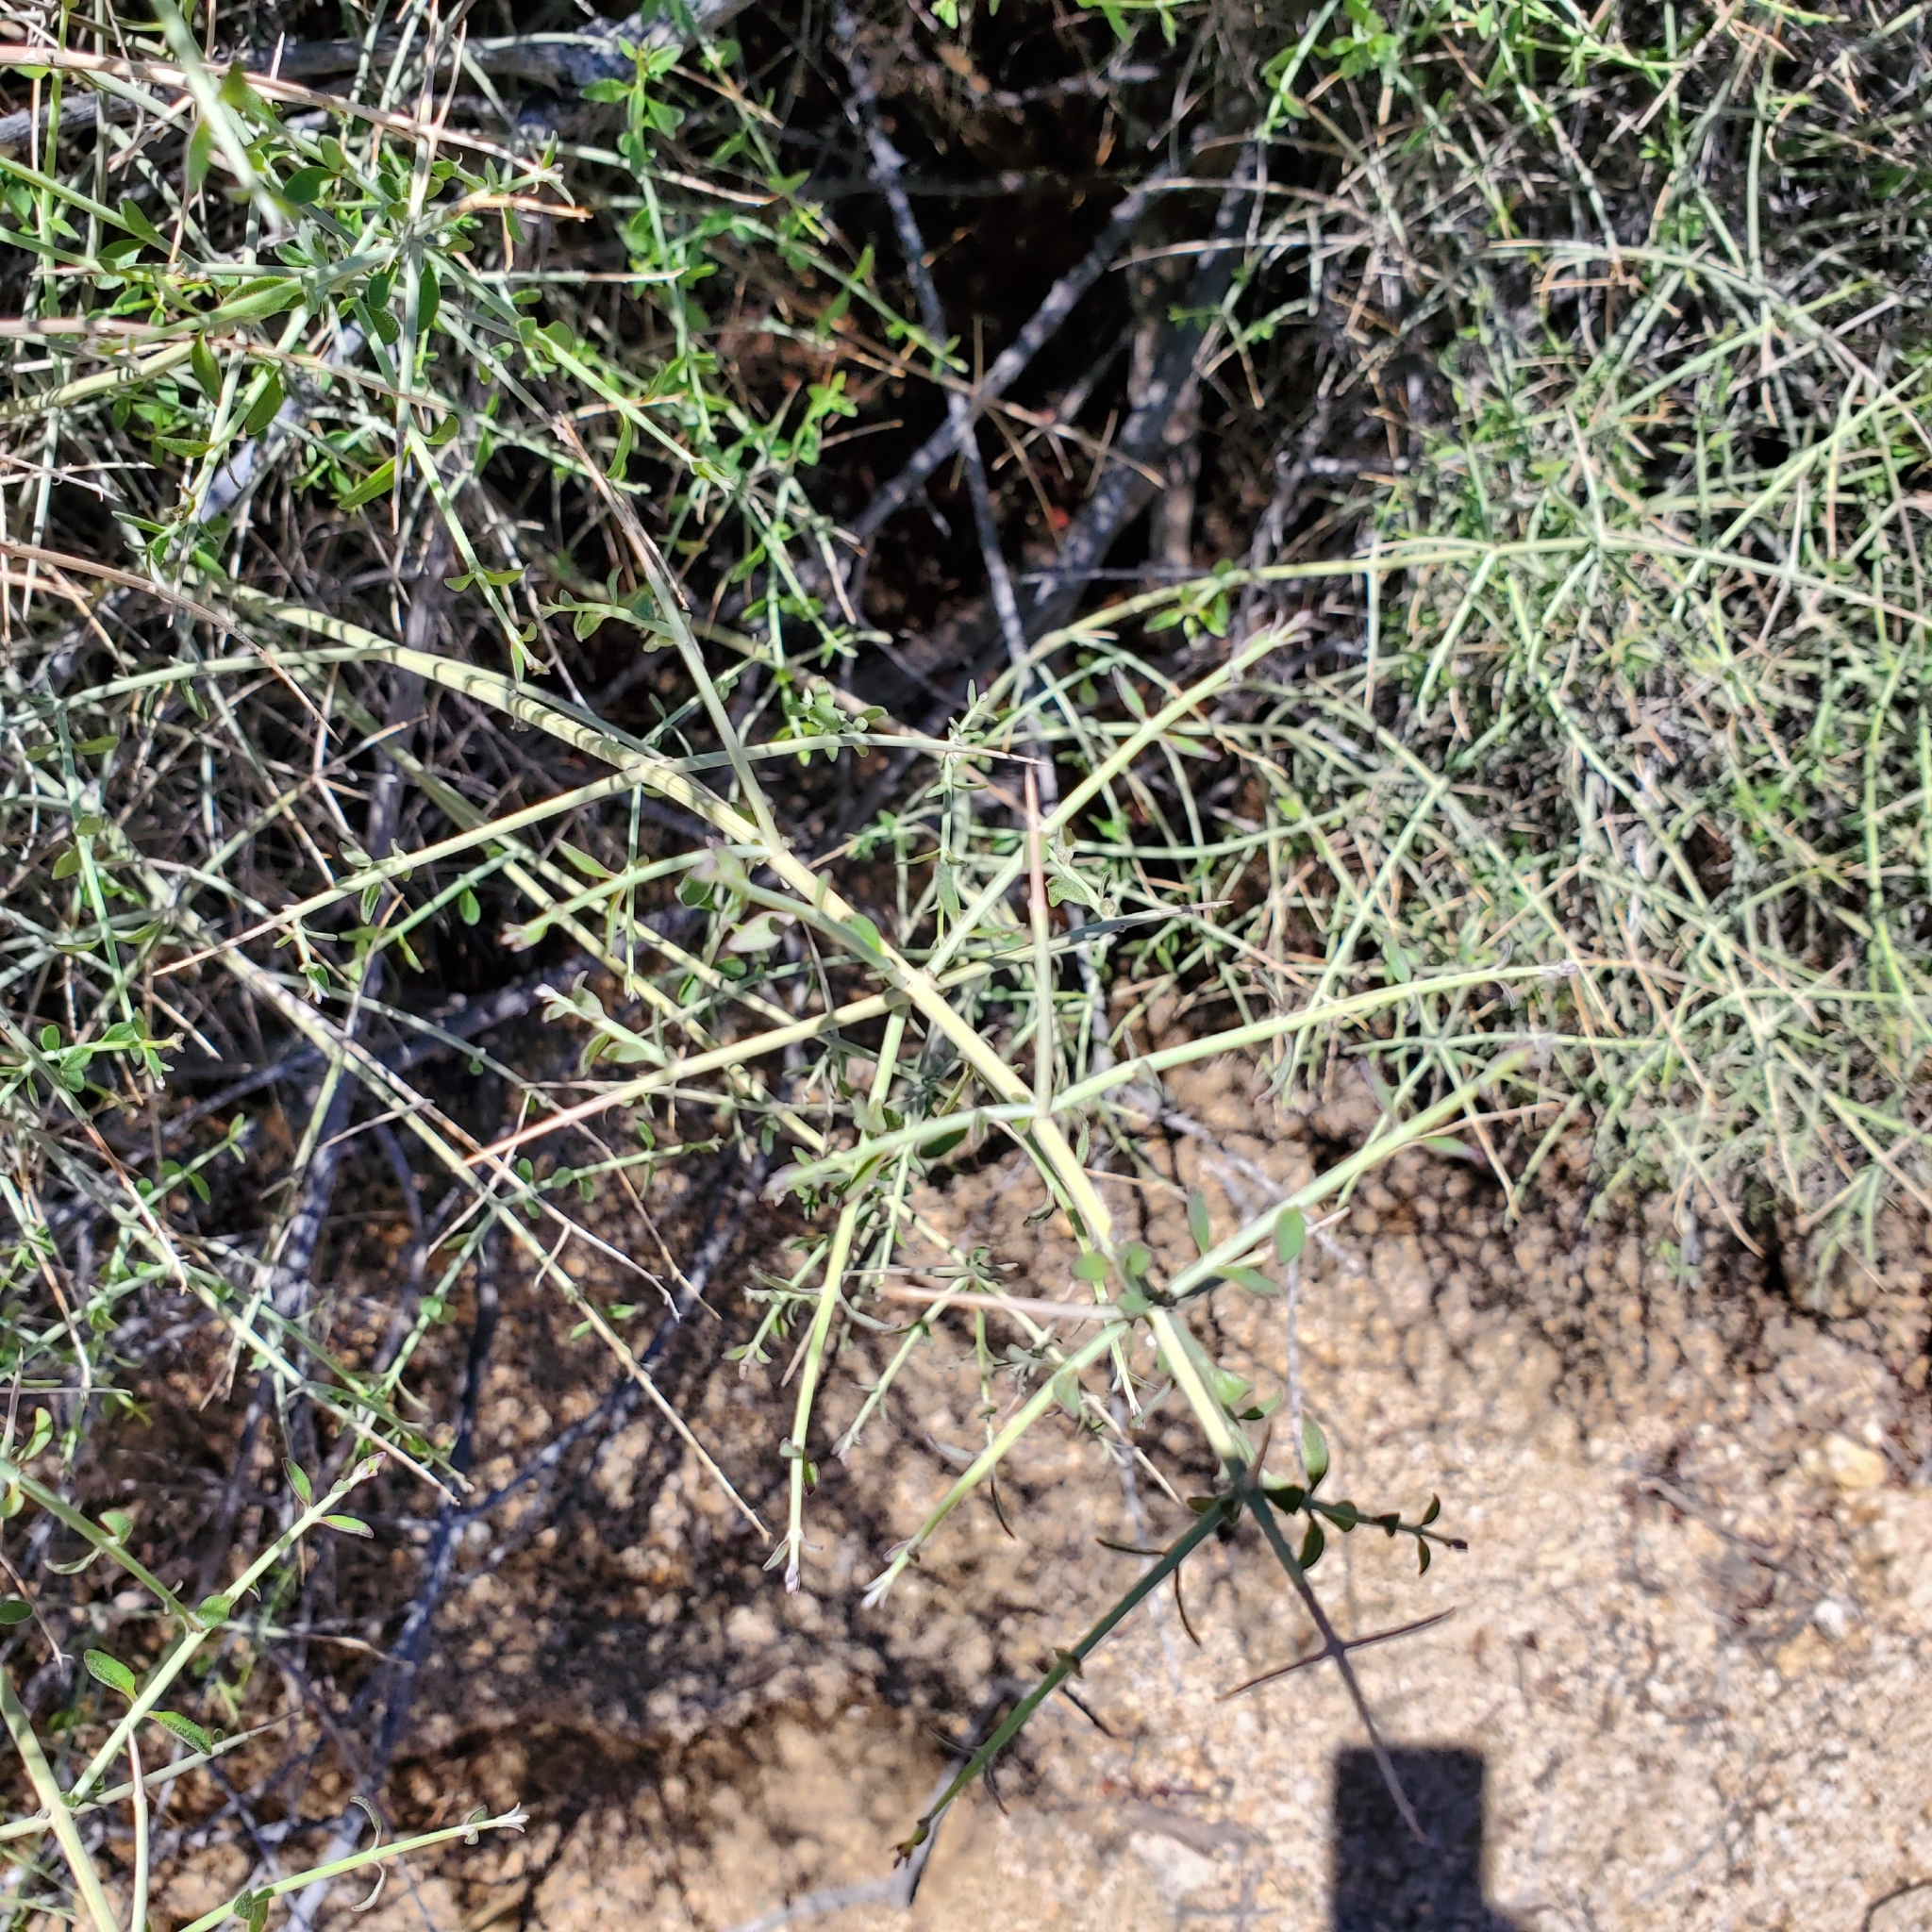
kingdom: Plantae
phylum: Tracheophyta
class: Magnoliopsida
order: Lamiales
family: Lamiaceae
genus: Scutellaria
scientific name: Scutellaria mexicana
